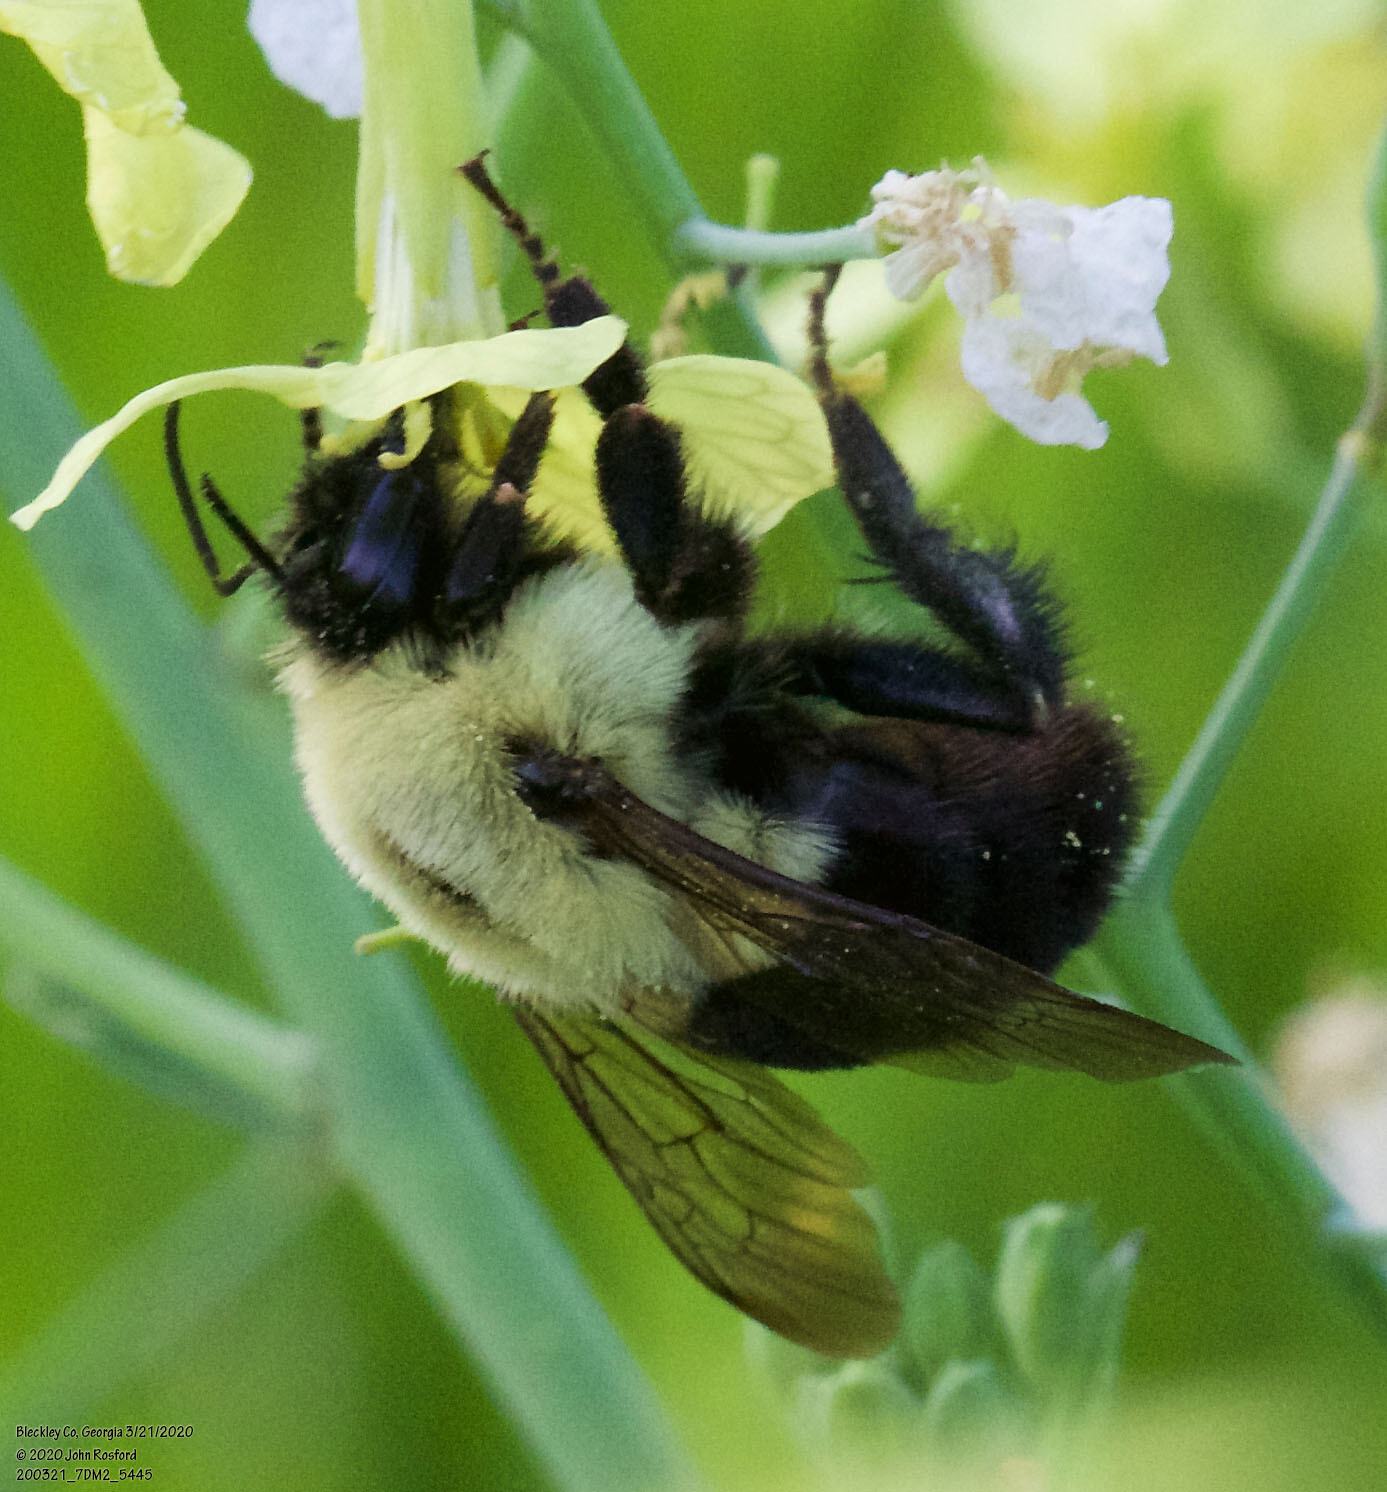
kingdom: Animalia
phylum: Arthropoda
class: Insecta
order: Hymenoptera
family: Apidae
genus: Bombus
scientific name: Bombus impatiens
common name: Common eastern bumble bee
